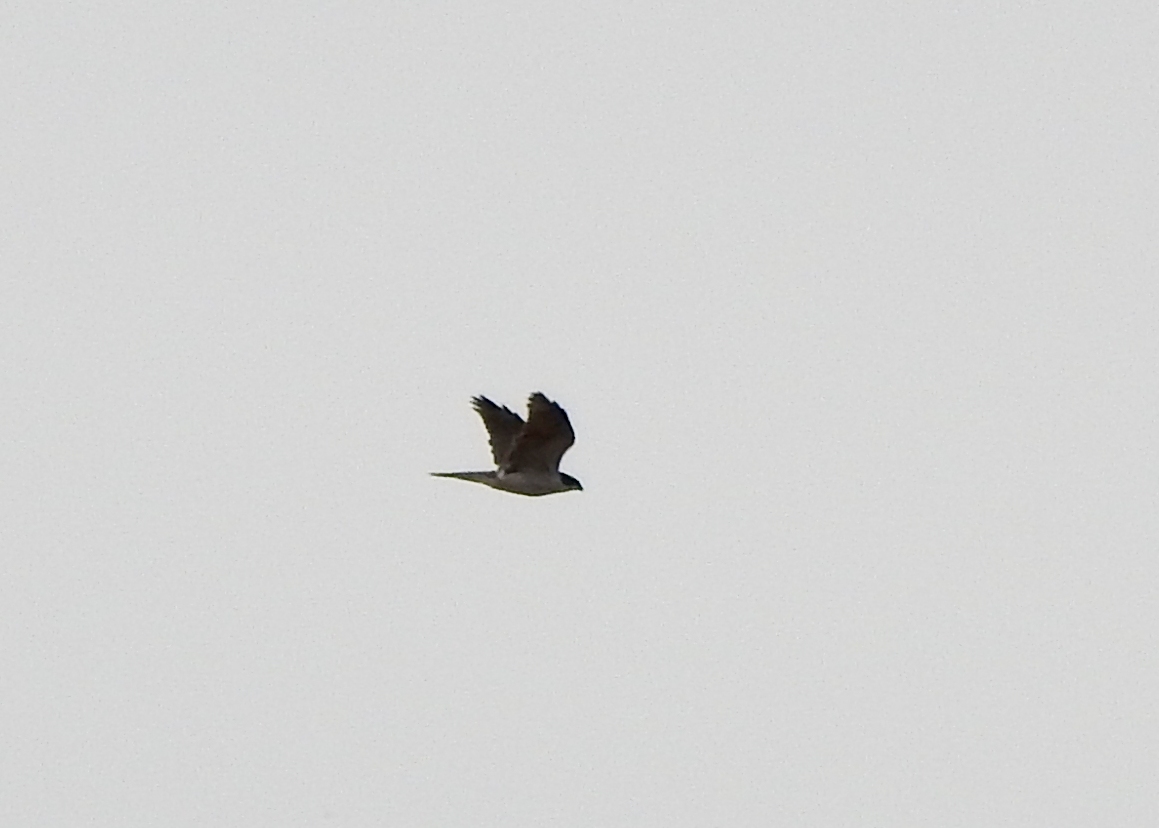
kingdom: Animalia
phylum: Chordata
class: Aves
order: Accipitriformes
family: Accipitridae
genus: Accipiter
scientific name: Accipiter gentilis
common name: Northern goshawk
